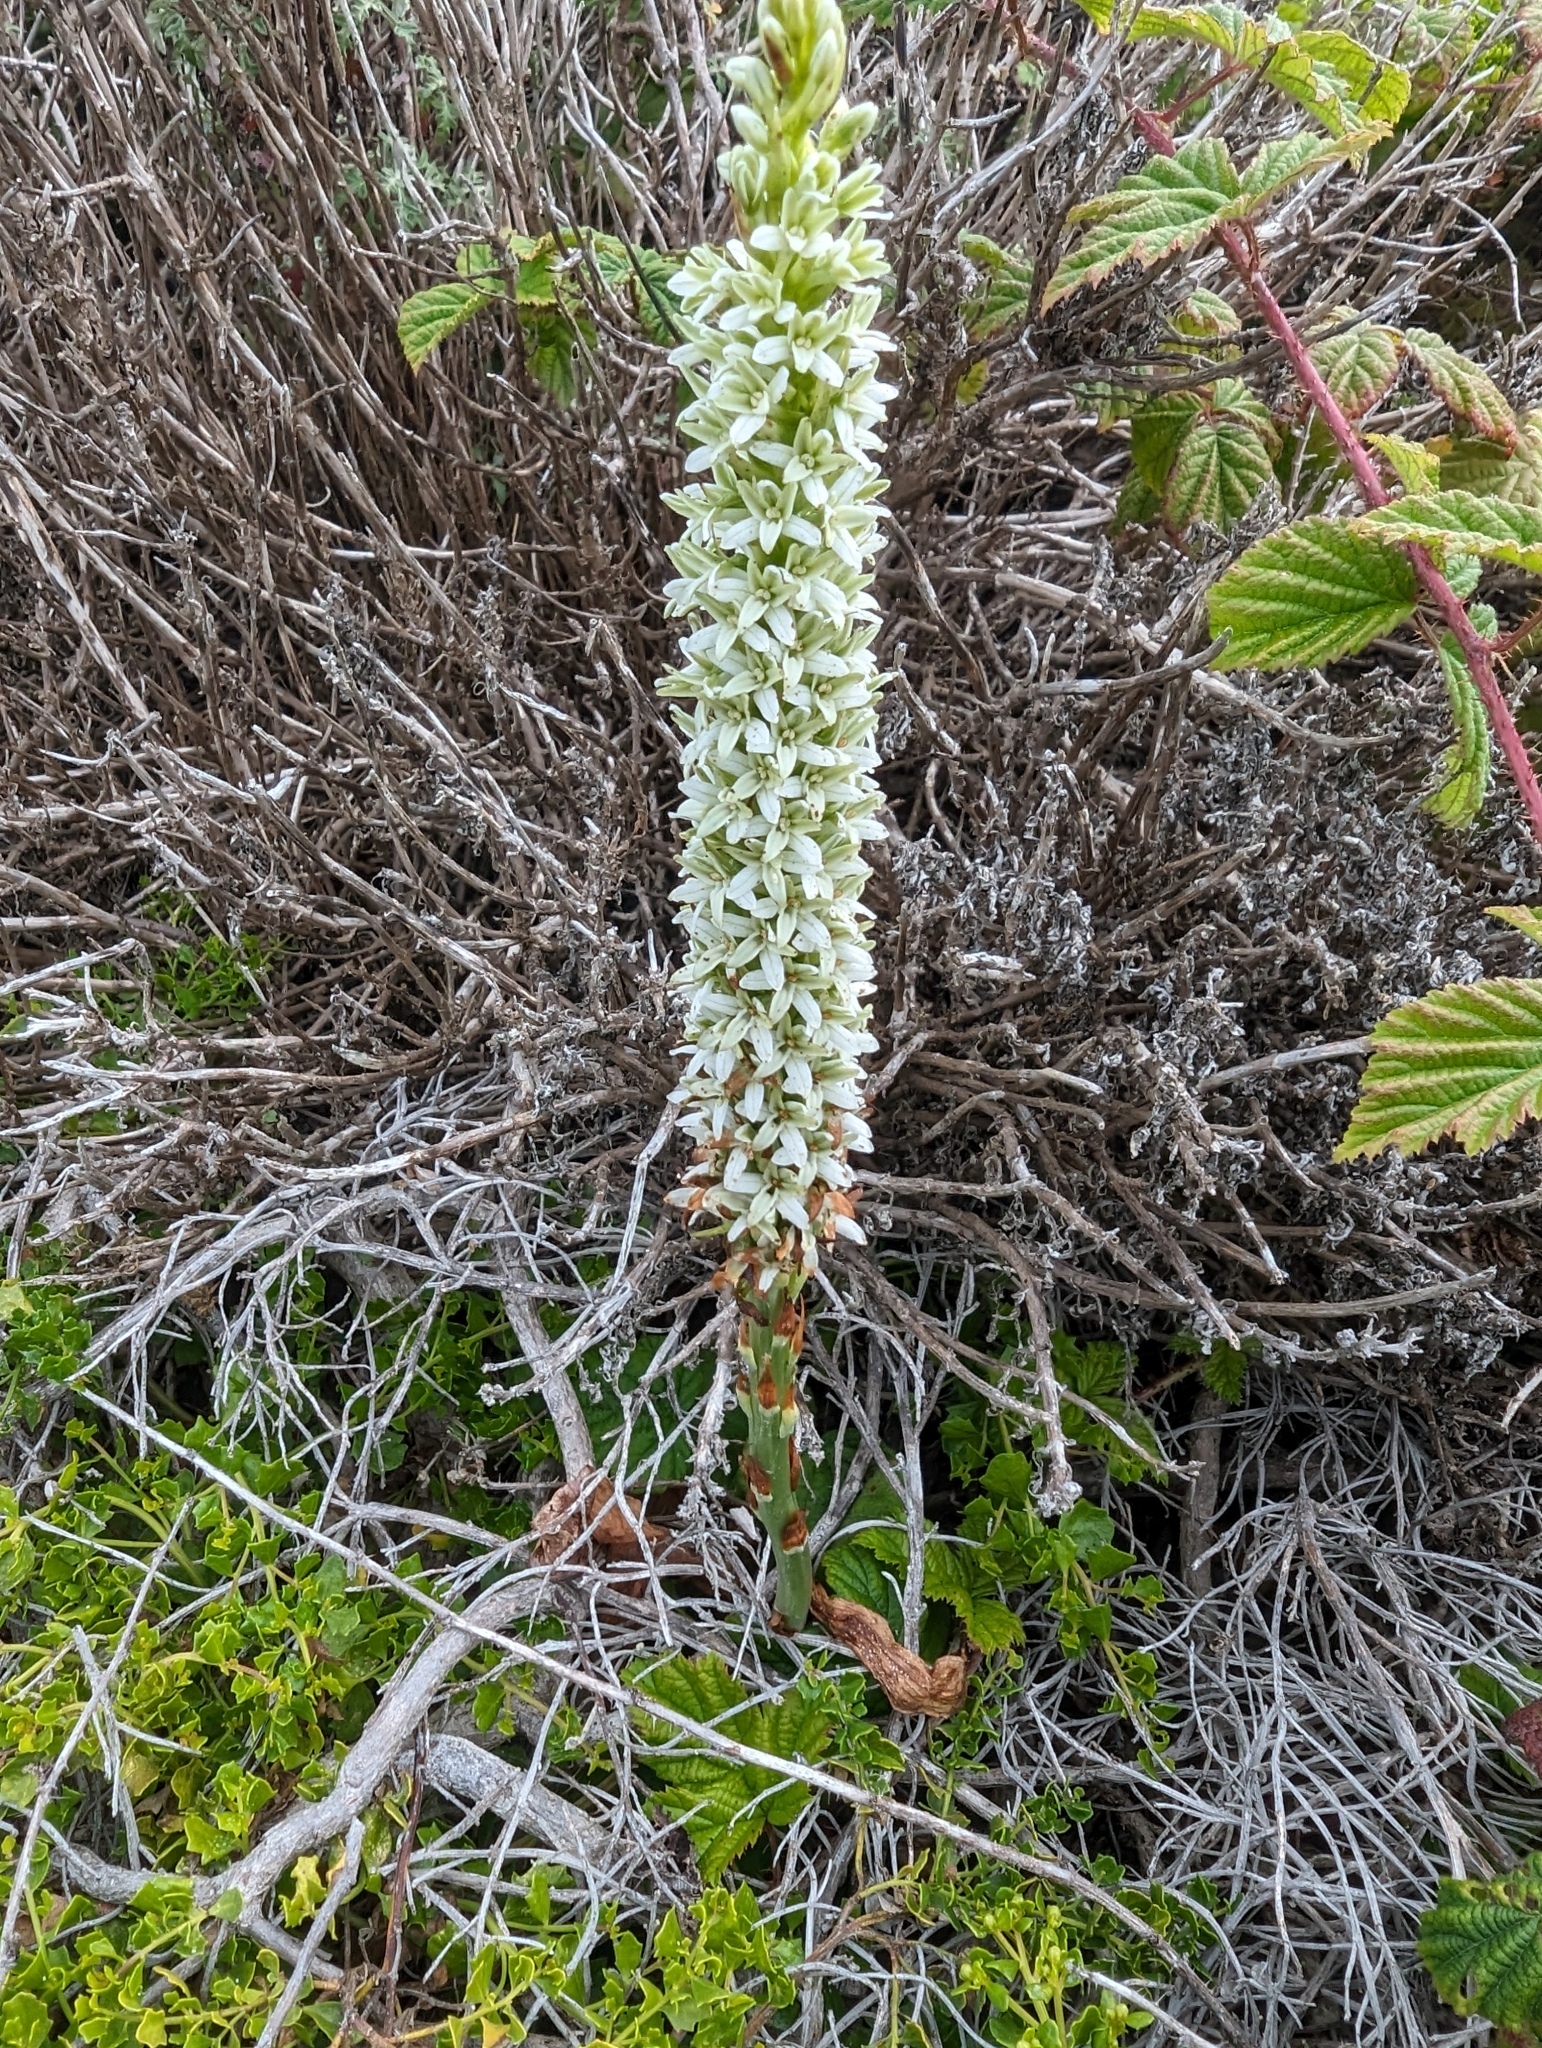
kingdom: Plantae
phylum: Tracheophyta
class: Liliopsida
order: Asparagales
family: Orchidaceae
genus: Platanthera
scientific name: Platanthera elegans
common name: Coast piperia
